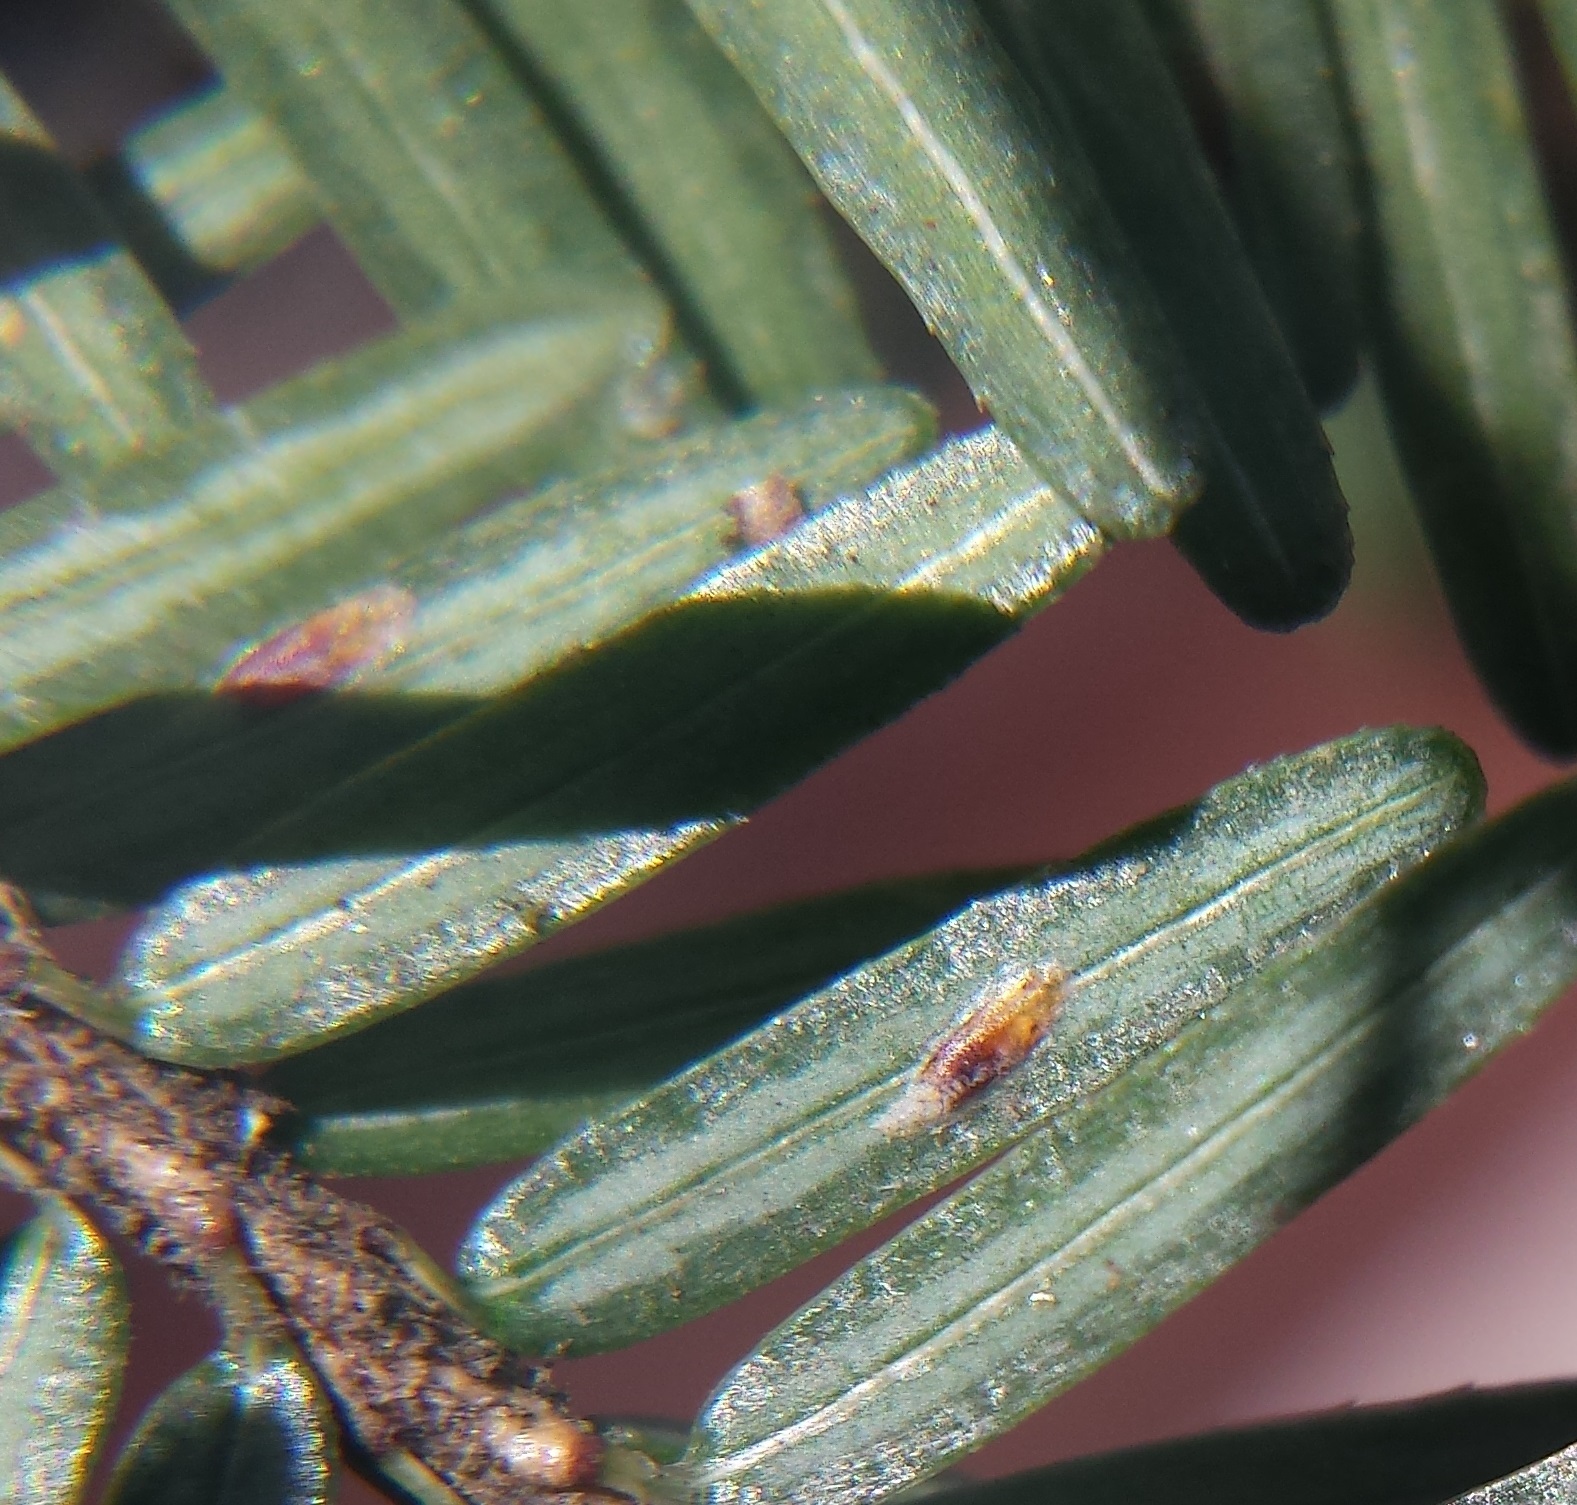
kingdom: Animalia
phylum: Arthropoda
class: Insecta
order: Hemiptera
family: Diaspididae
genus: Fiorinia
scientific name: Fiorinia externa
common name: Elongate hemlock scale
